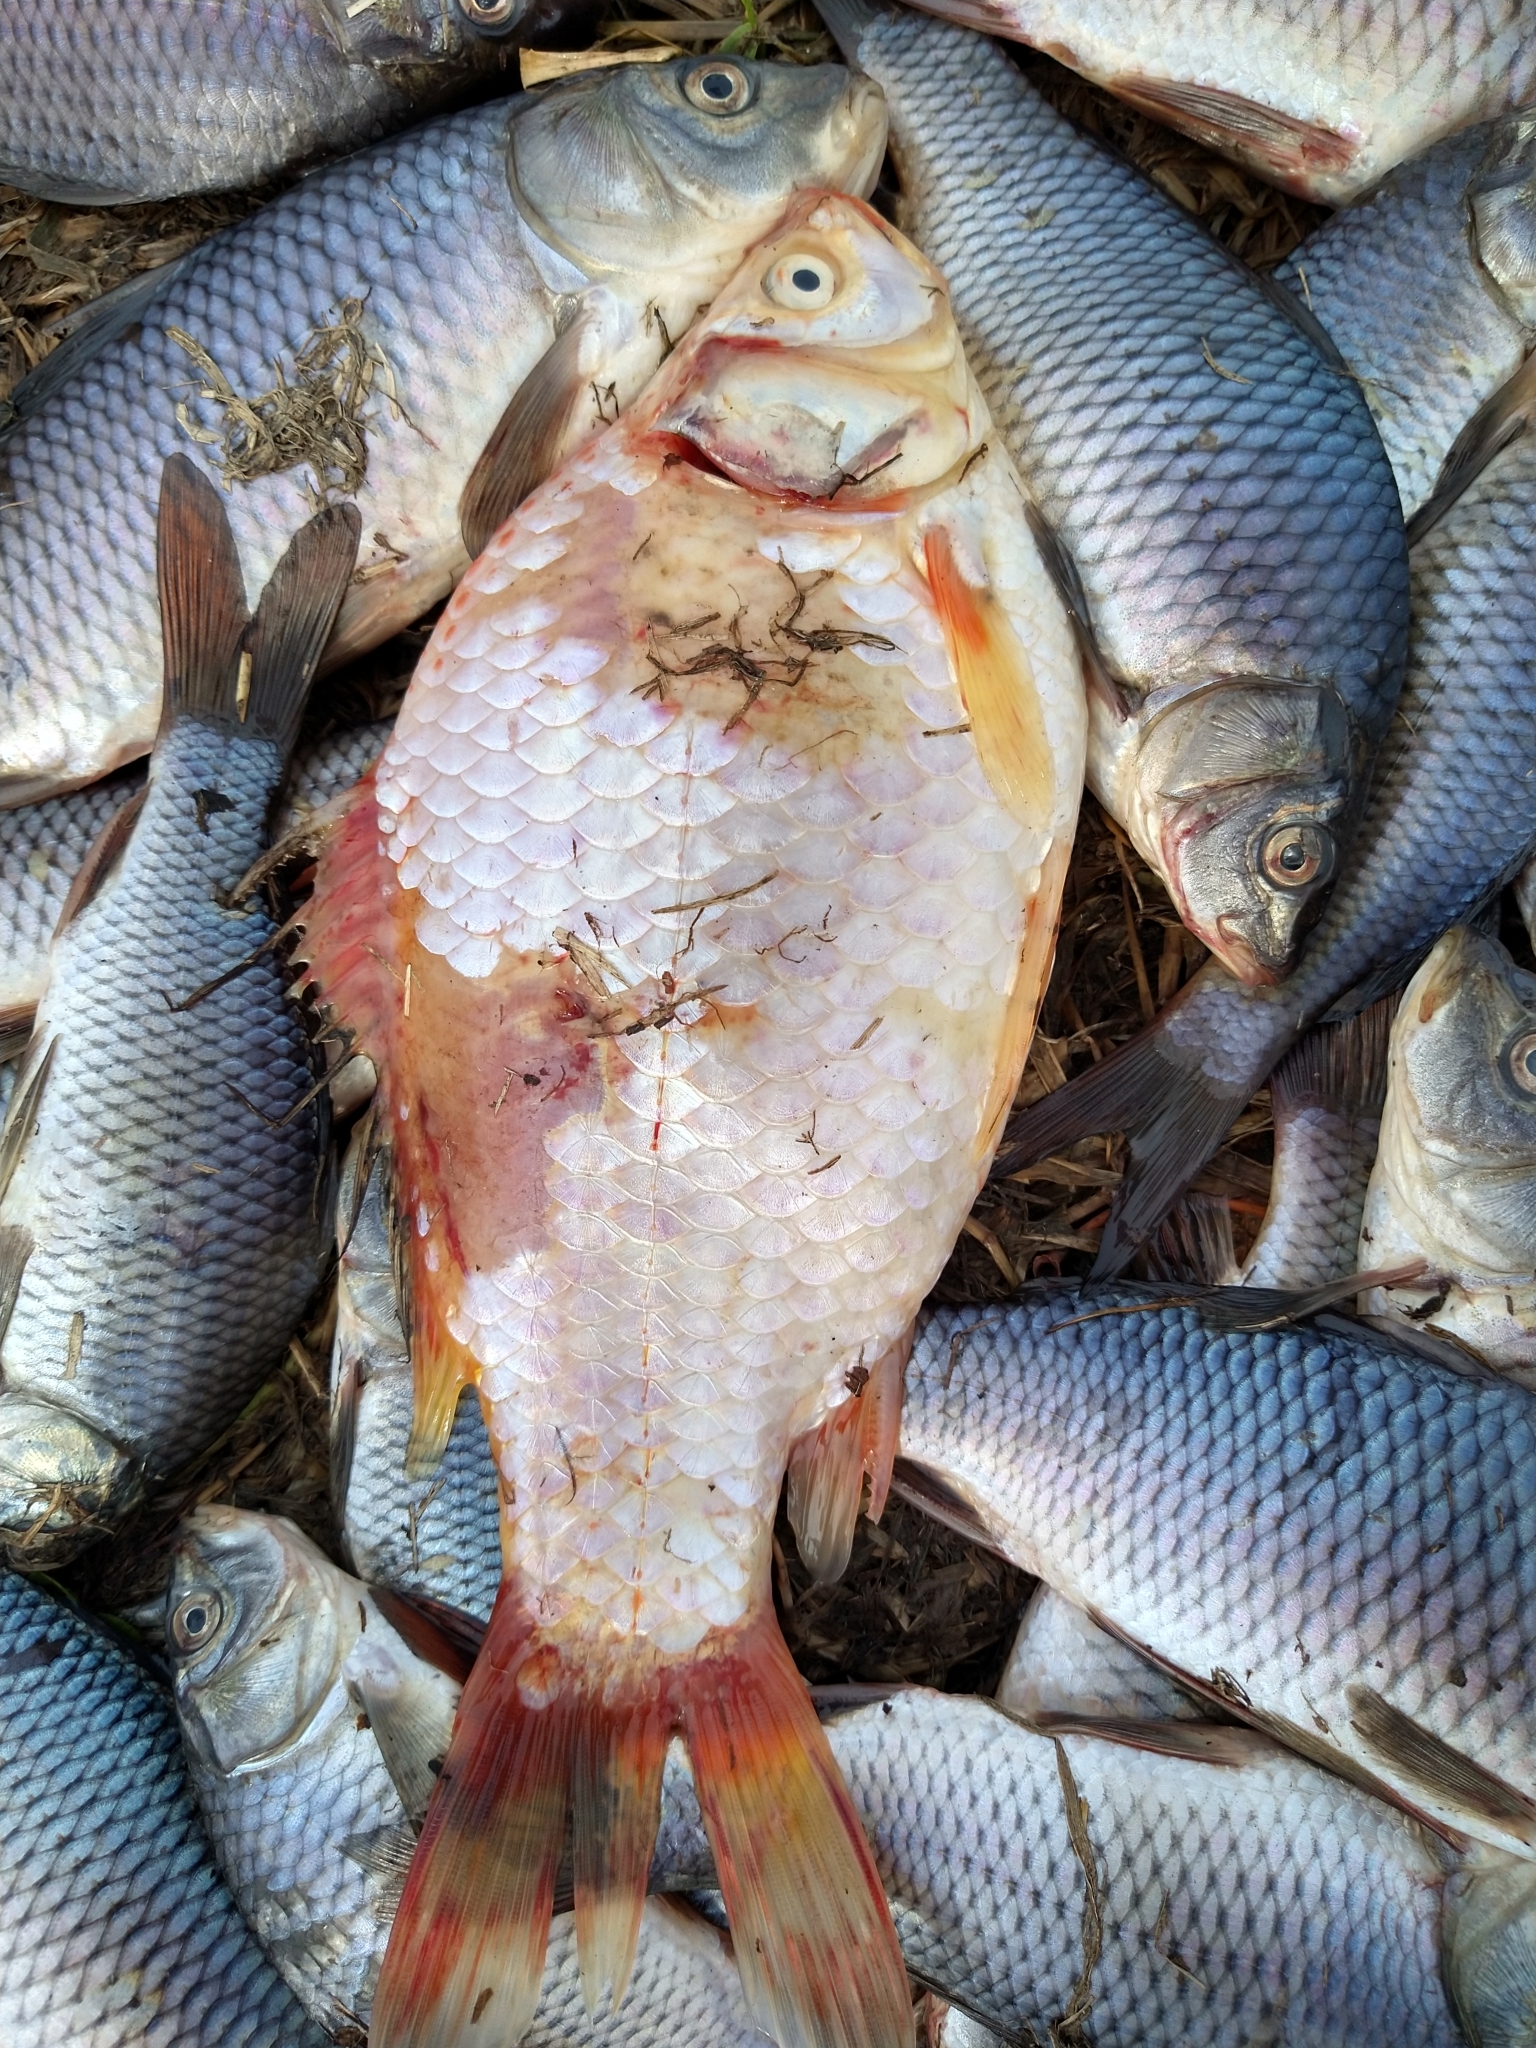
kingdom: Animalia
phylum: Chordata
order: Cypriniformes
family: Cyprinidae
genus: Carassius
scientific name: Carassius auratus
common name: Goldfish
